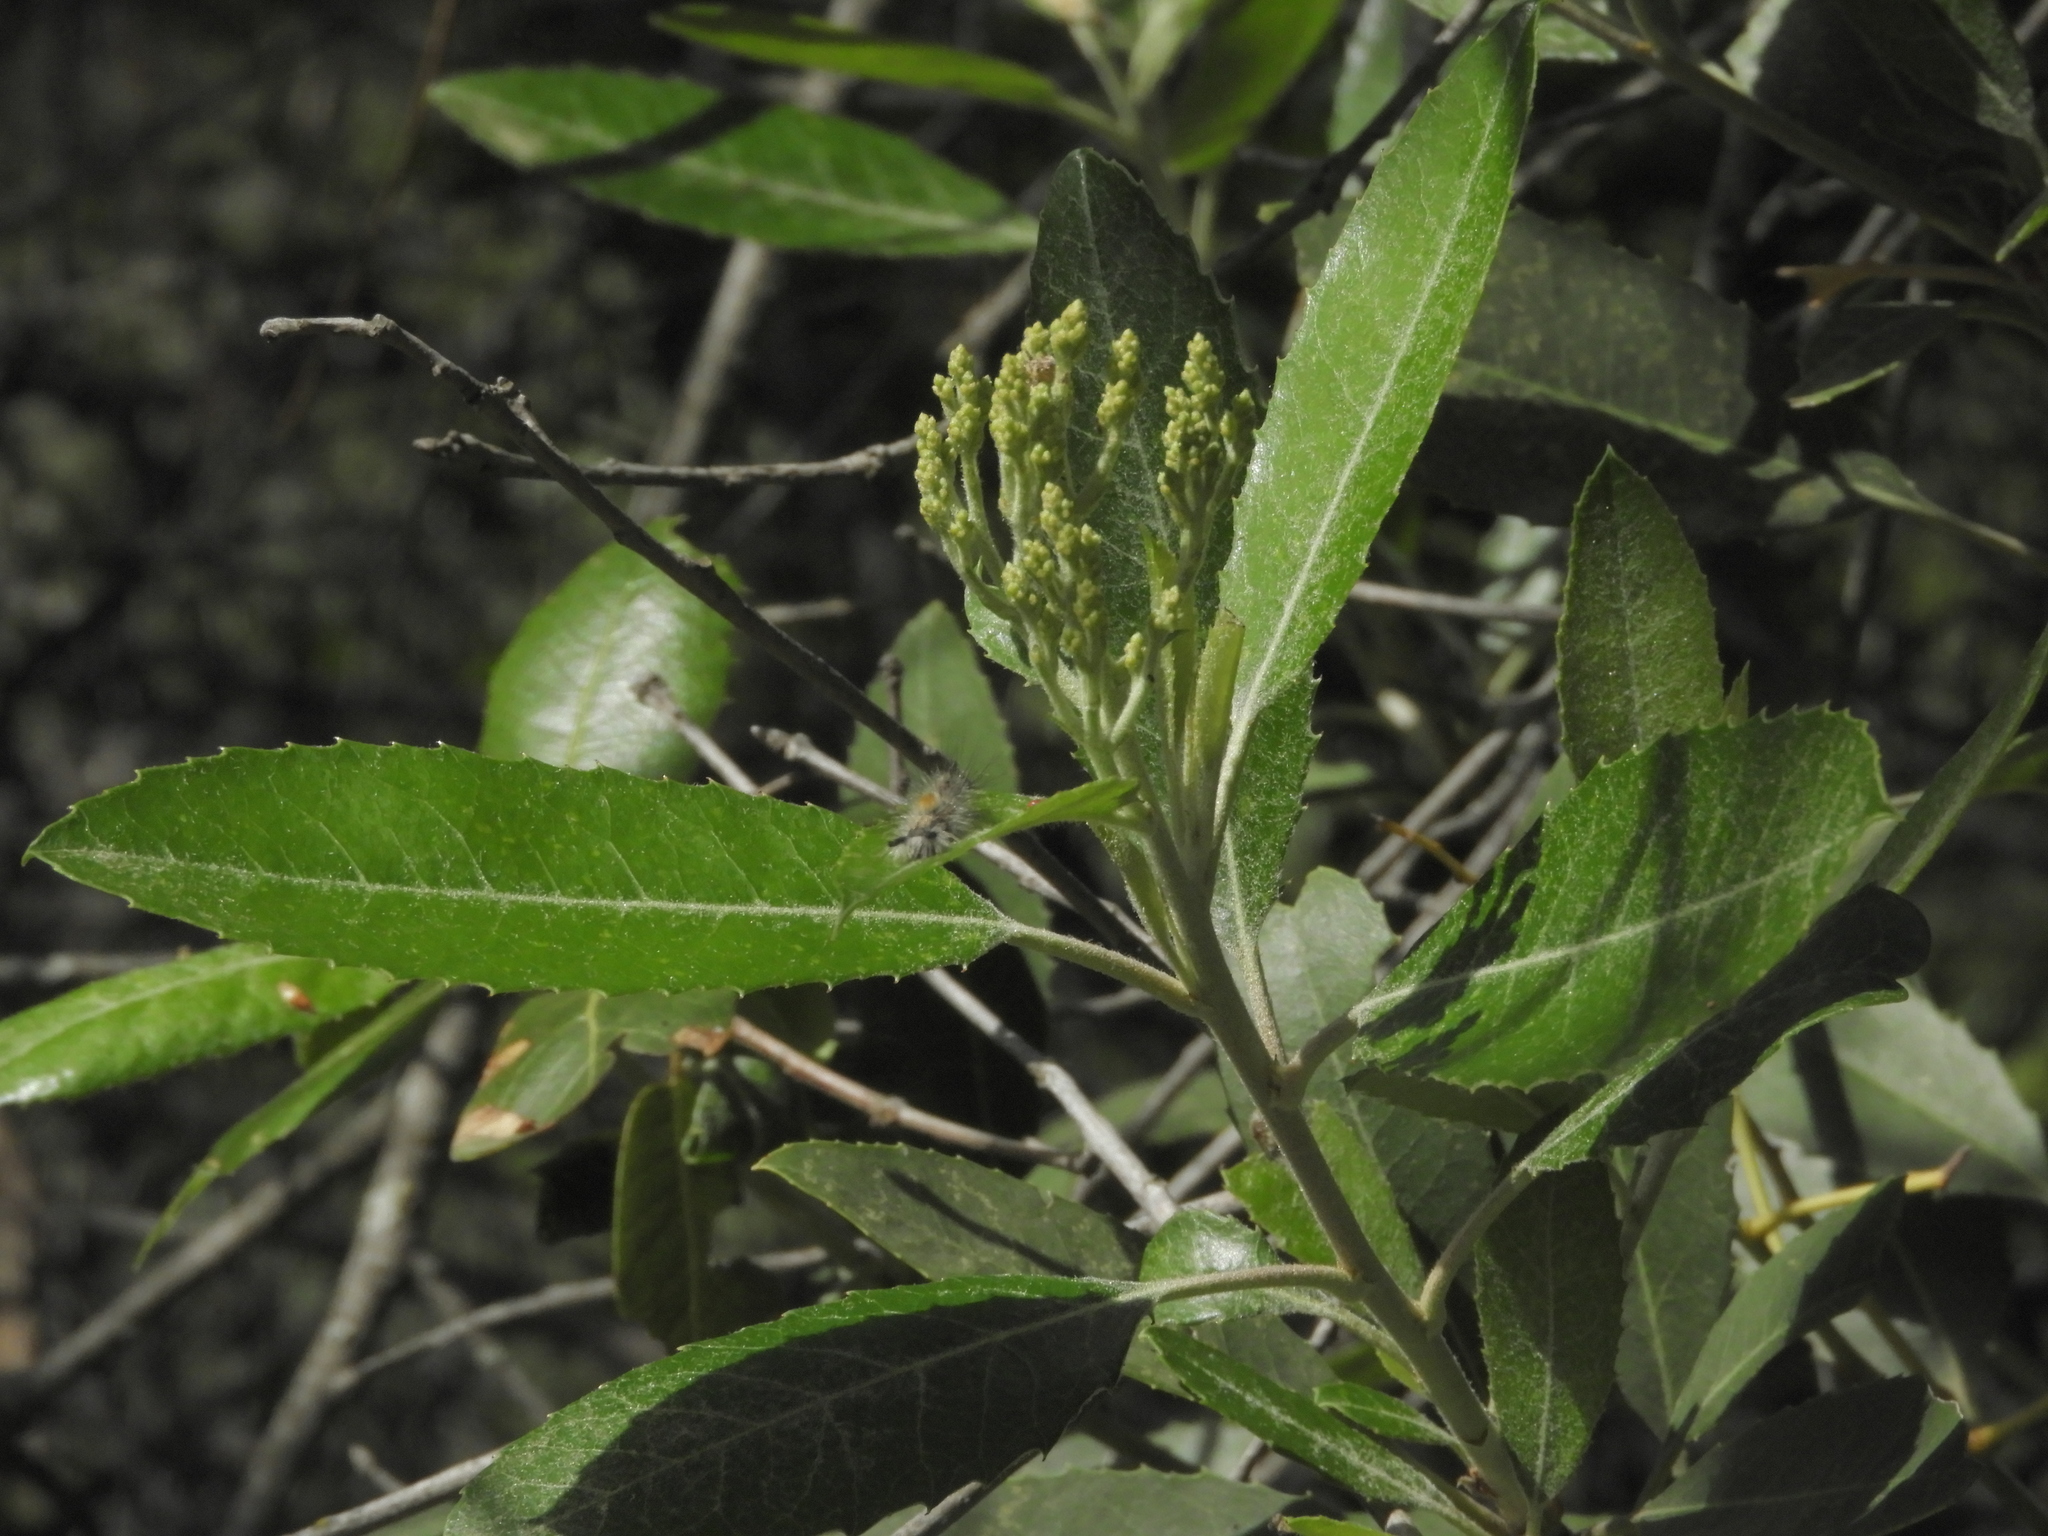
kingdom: Plantae
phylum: Tracheophyta
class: Magnoliopsida
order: Rosales
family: Rosaceae
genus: Heteromeles
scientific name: Heteromeles arbutifolia
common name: California-holly
